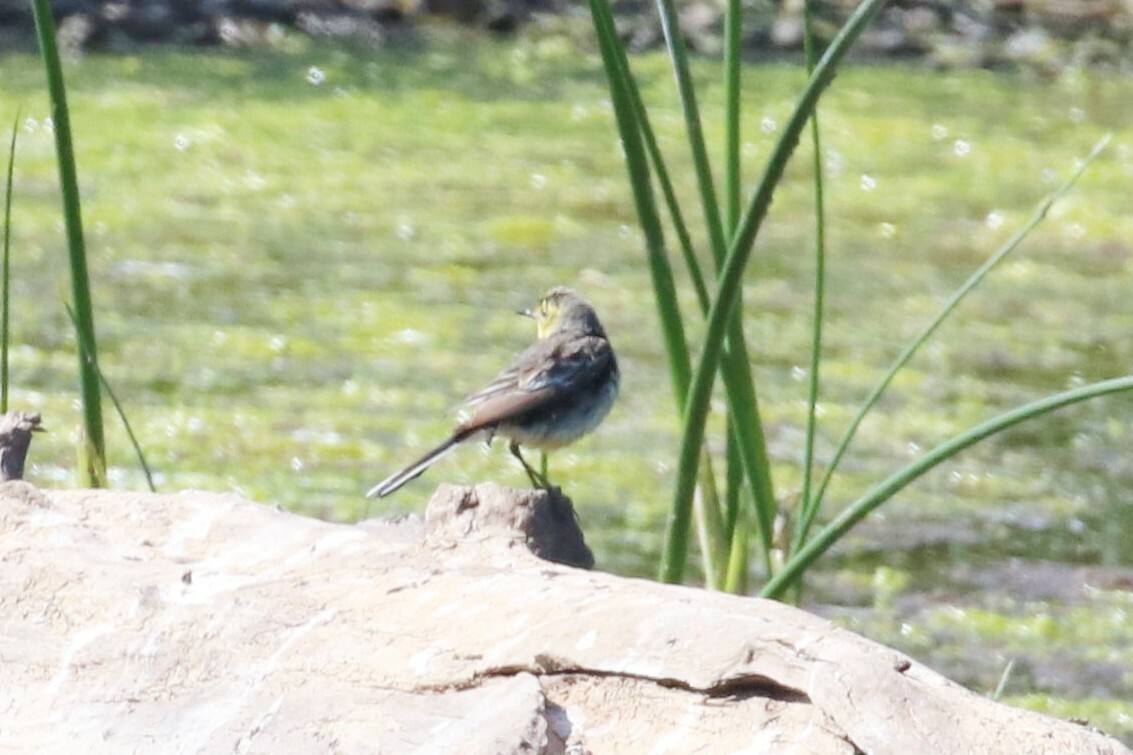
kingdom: Animalia
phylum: Chordata
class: Aves
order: Passeriformes
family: Motacillidae
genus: Motacilla
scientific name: Motacilla citreola
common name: Citrine wagtail
